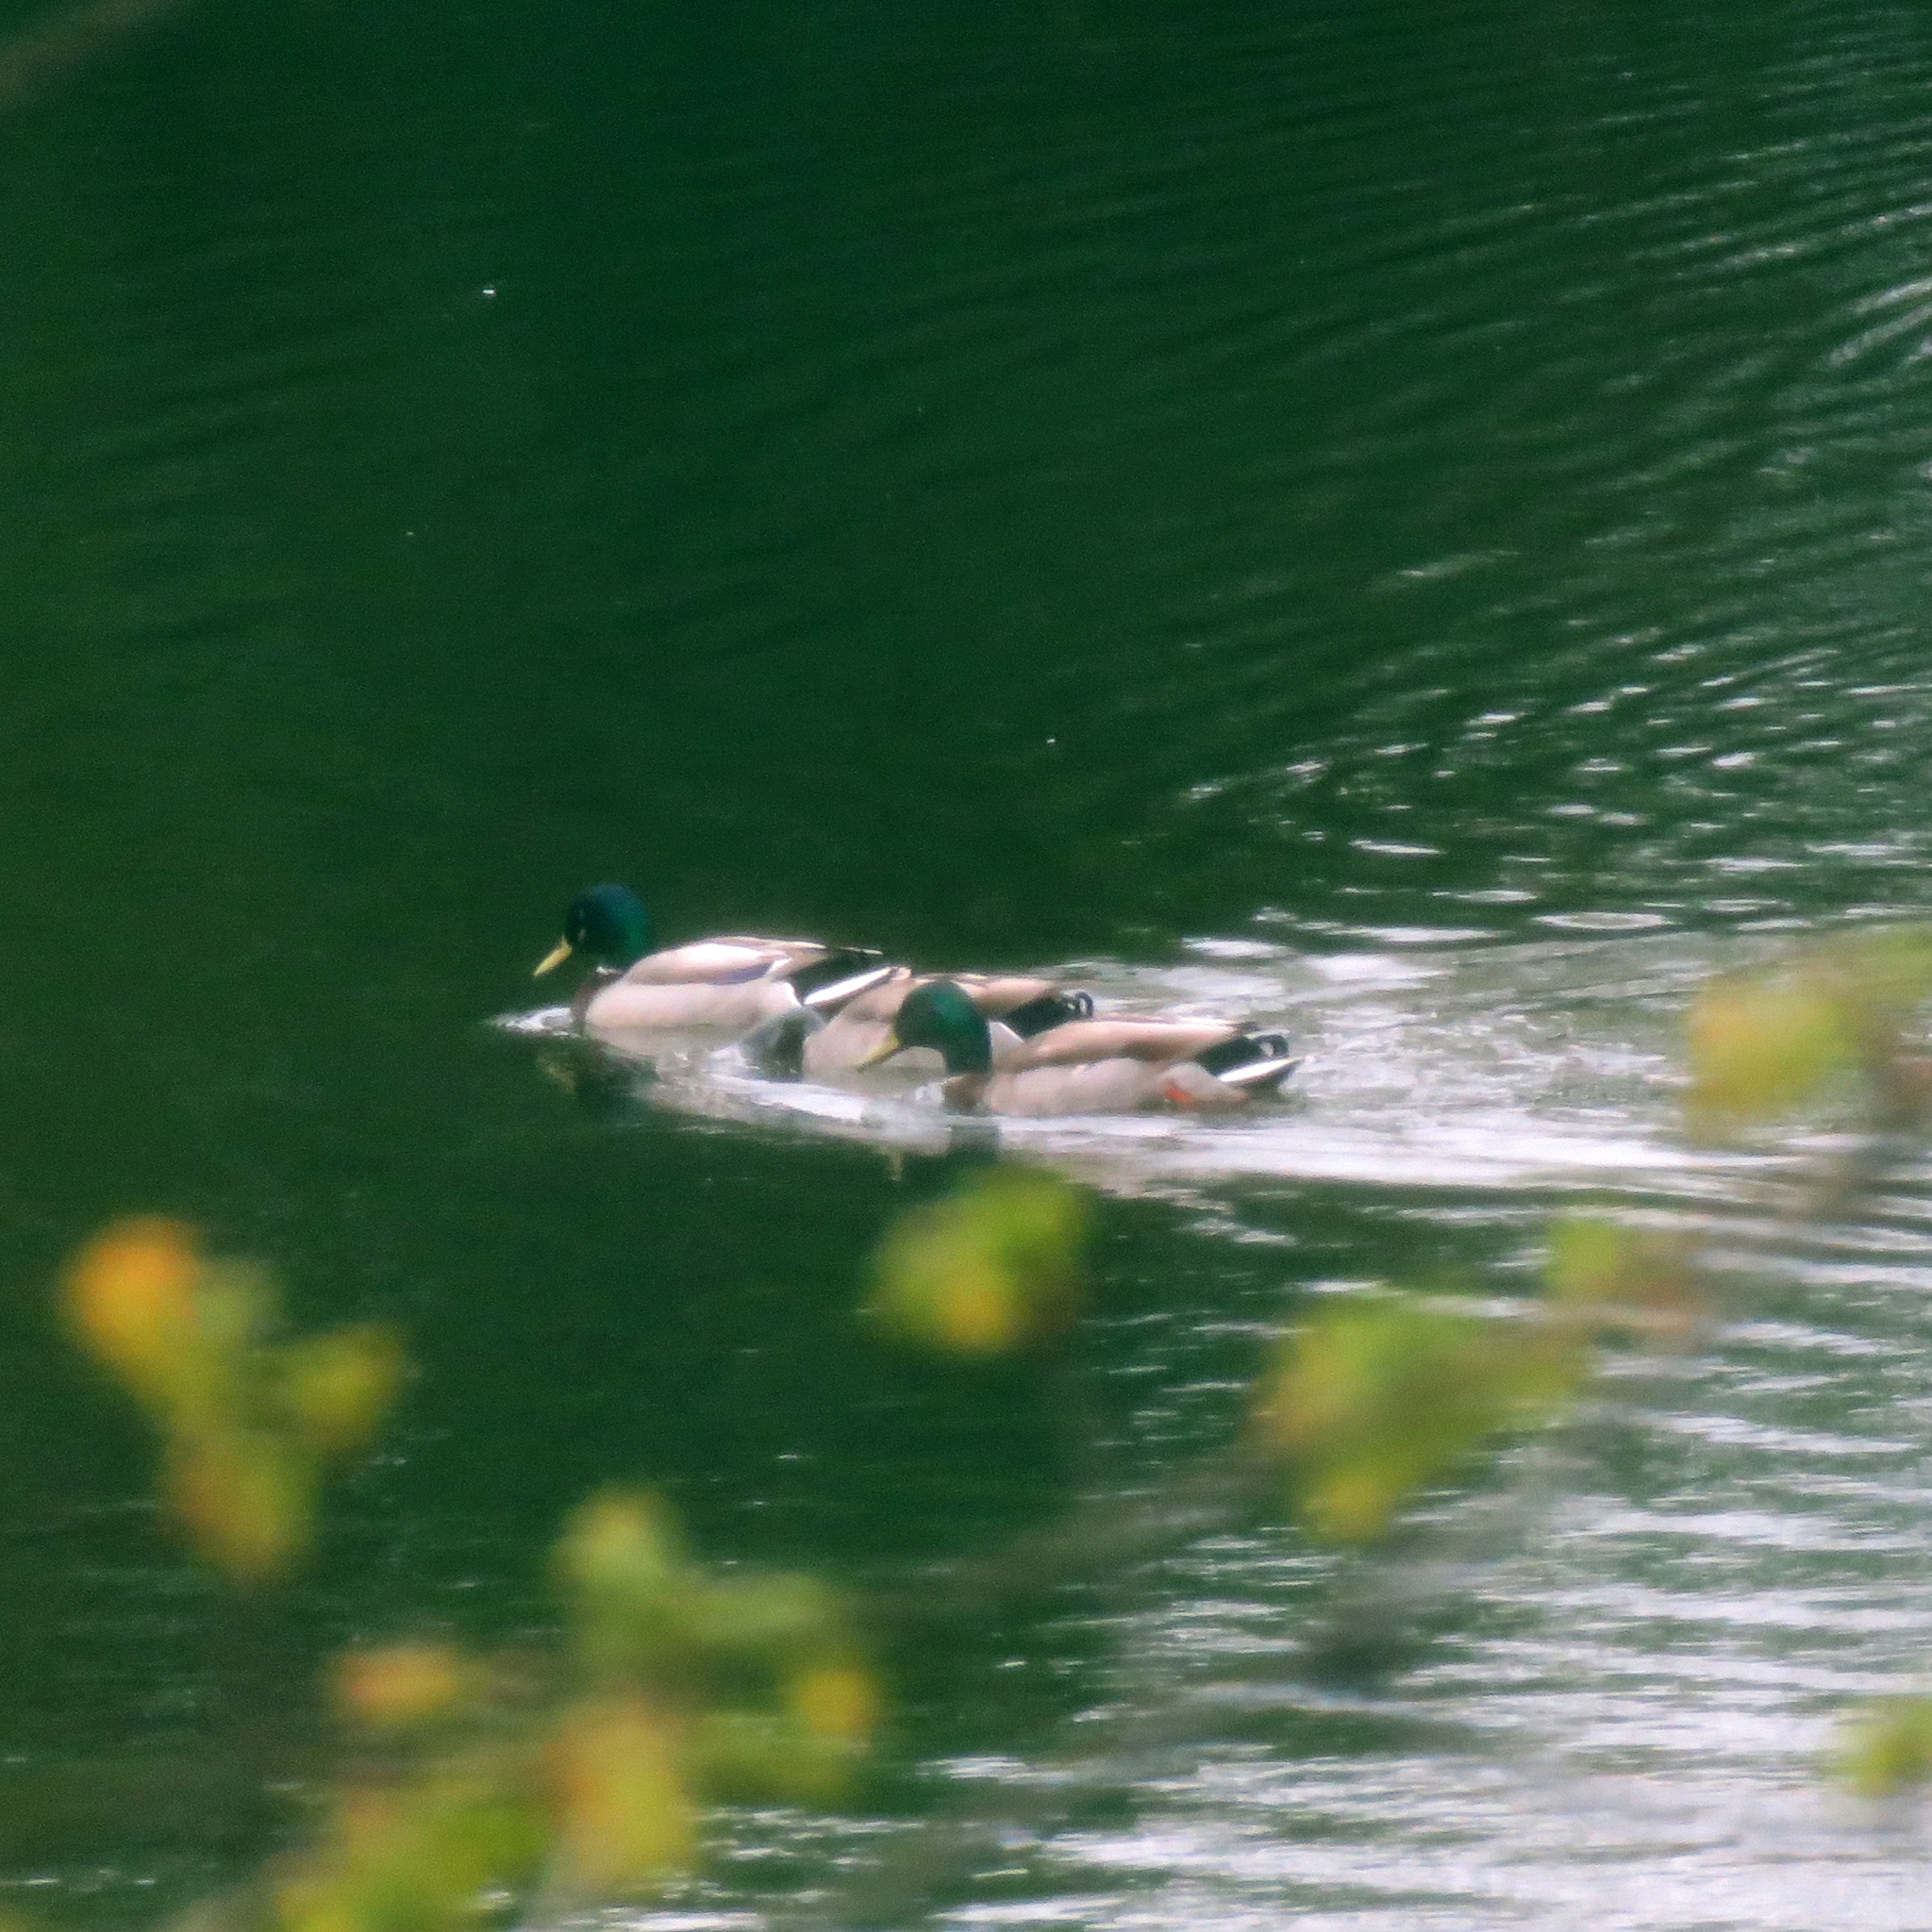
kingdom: Animalia
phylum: Chordata
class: Aves
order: Anseriformes
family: Anatidae
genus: Anas
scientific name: Anas platyrhynchos
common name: Mallard
